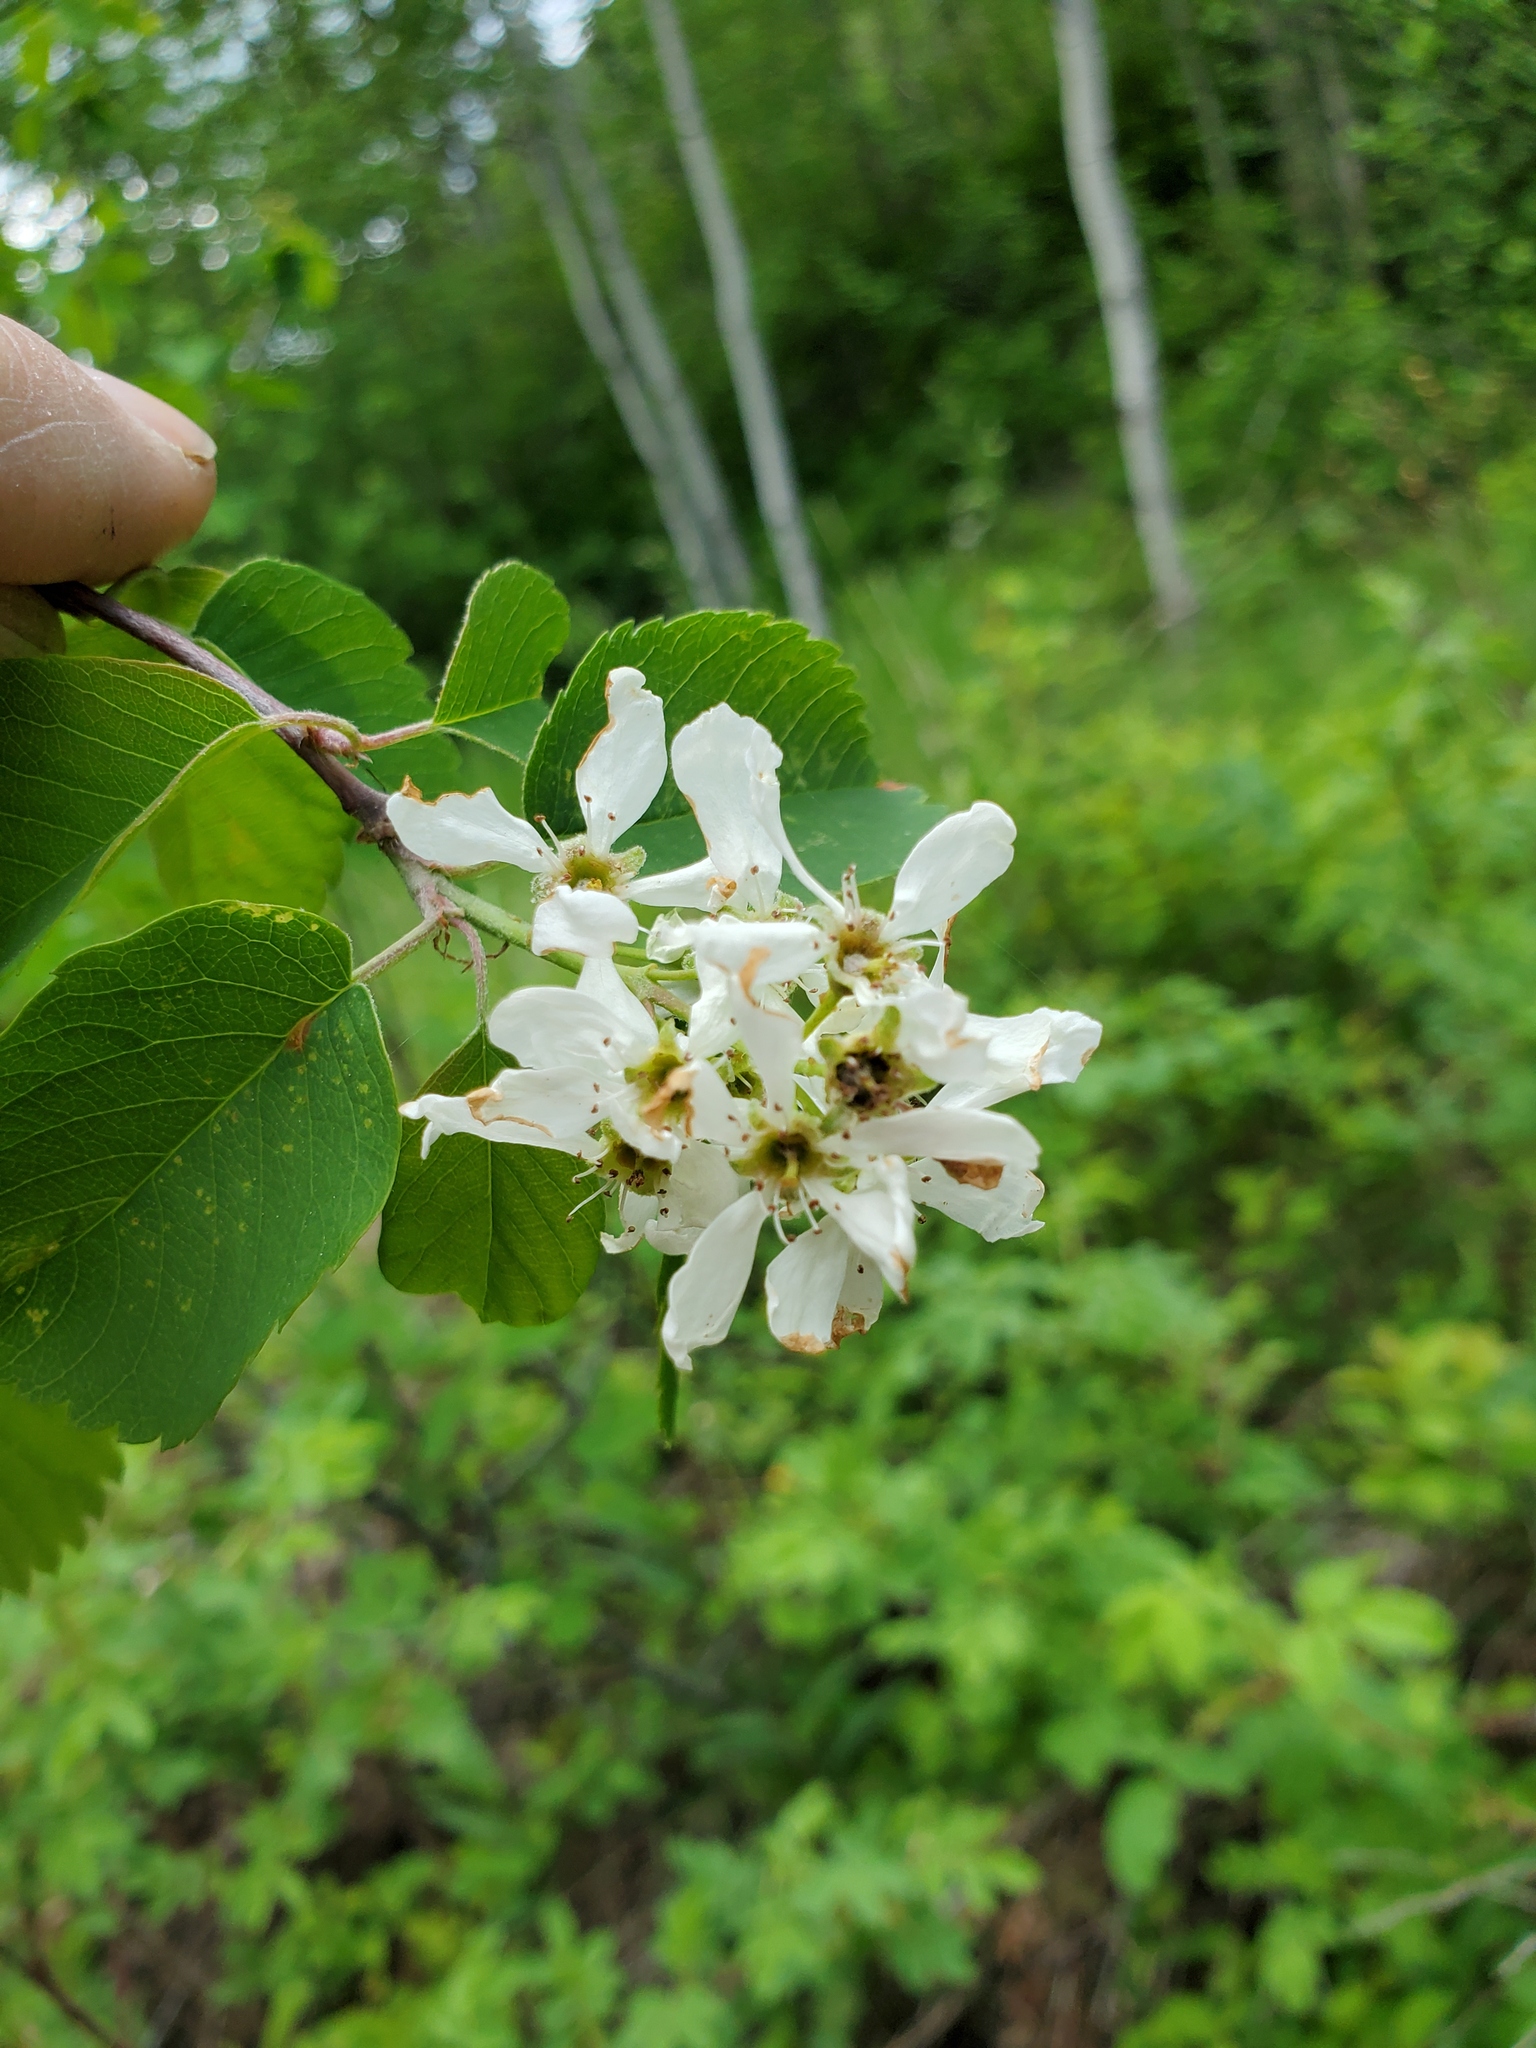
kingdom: Plantae
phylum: Tracheophyta
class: Magnoliopsida
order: Rosales
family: Rosaceae
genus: Amelanchier
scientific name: Amelanchier alnifolia
